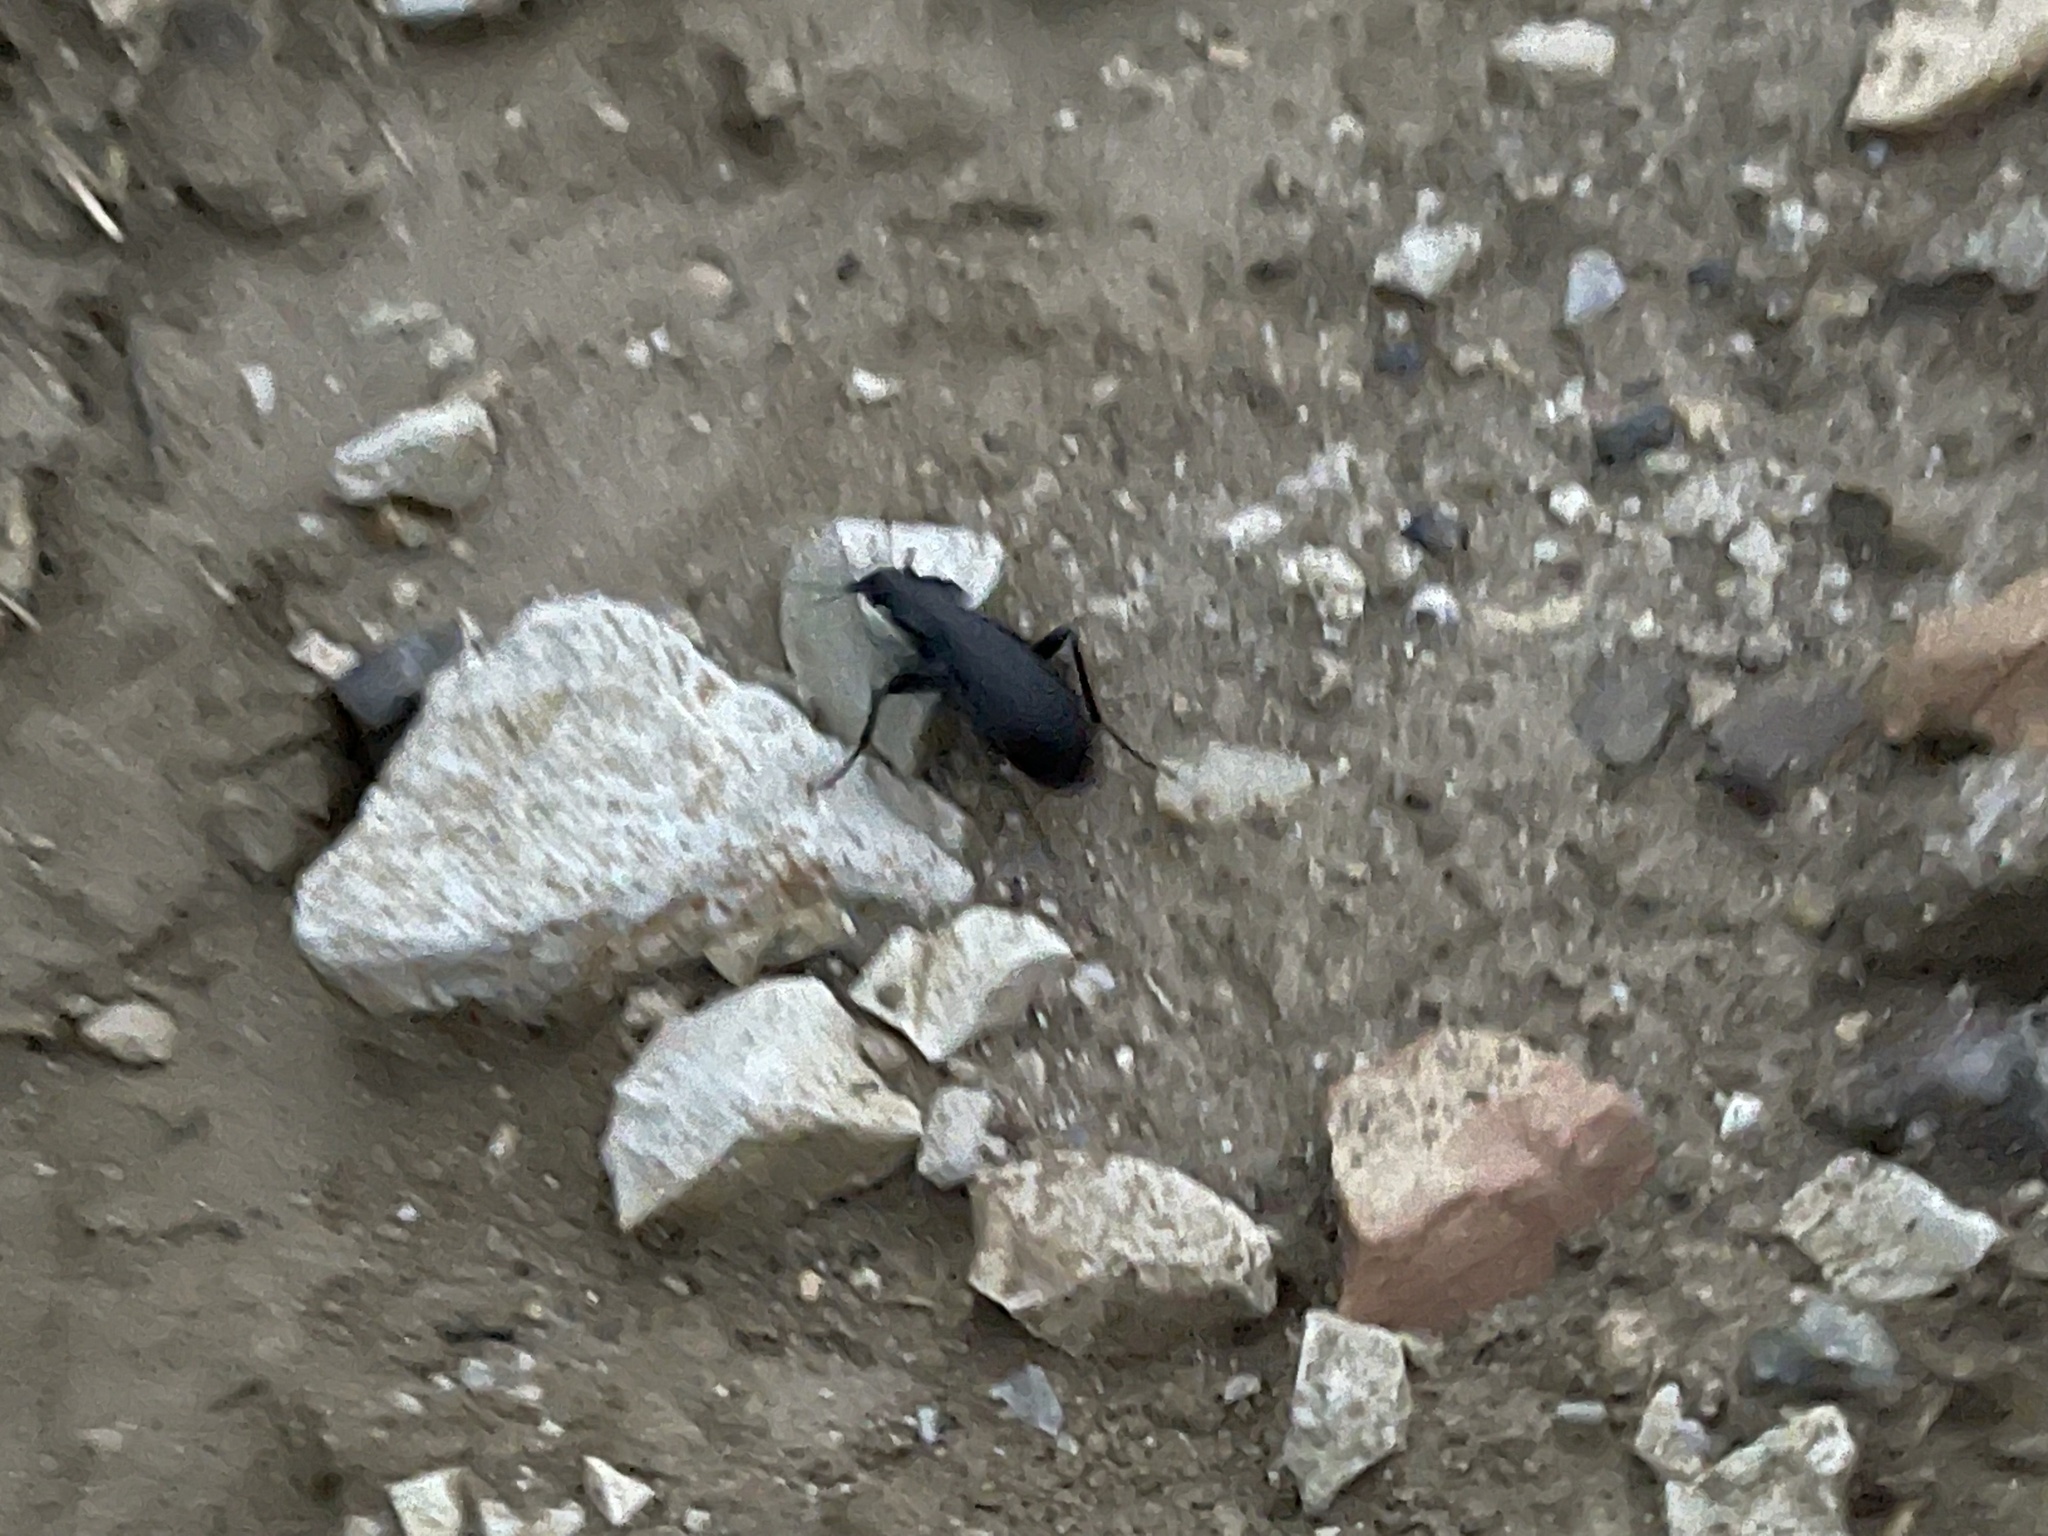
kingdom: Animalia
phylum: Arthropoda
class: Insecta
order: Coleoptera
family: Carabidae
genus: Carabus
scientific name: Carabus coriaceus
